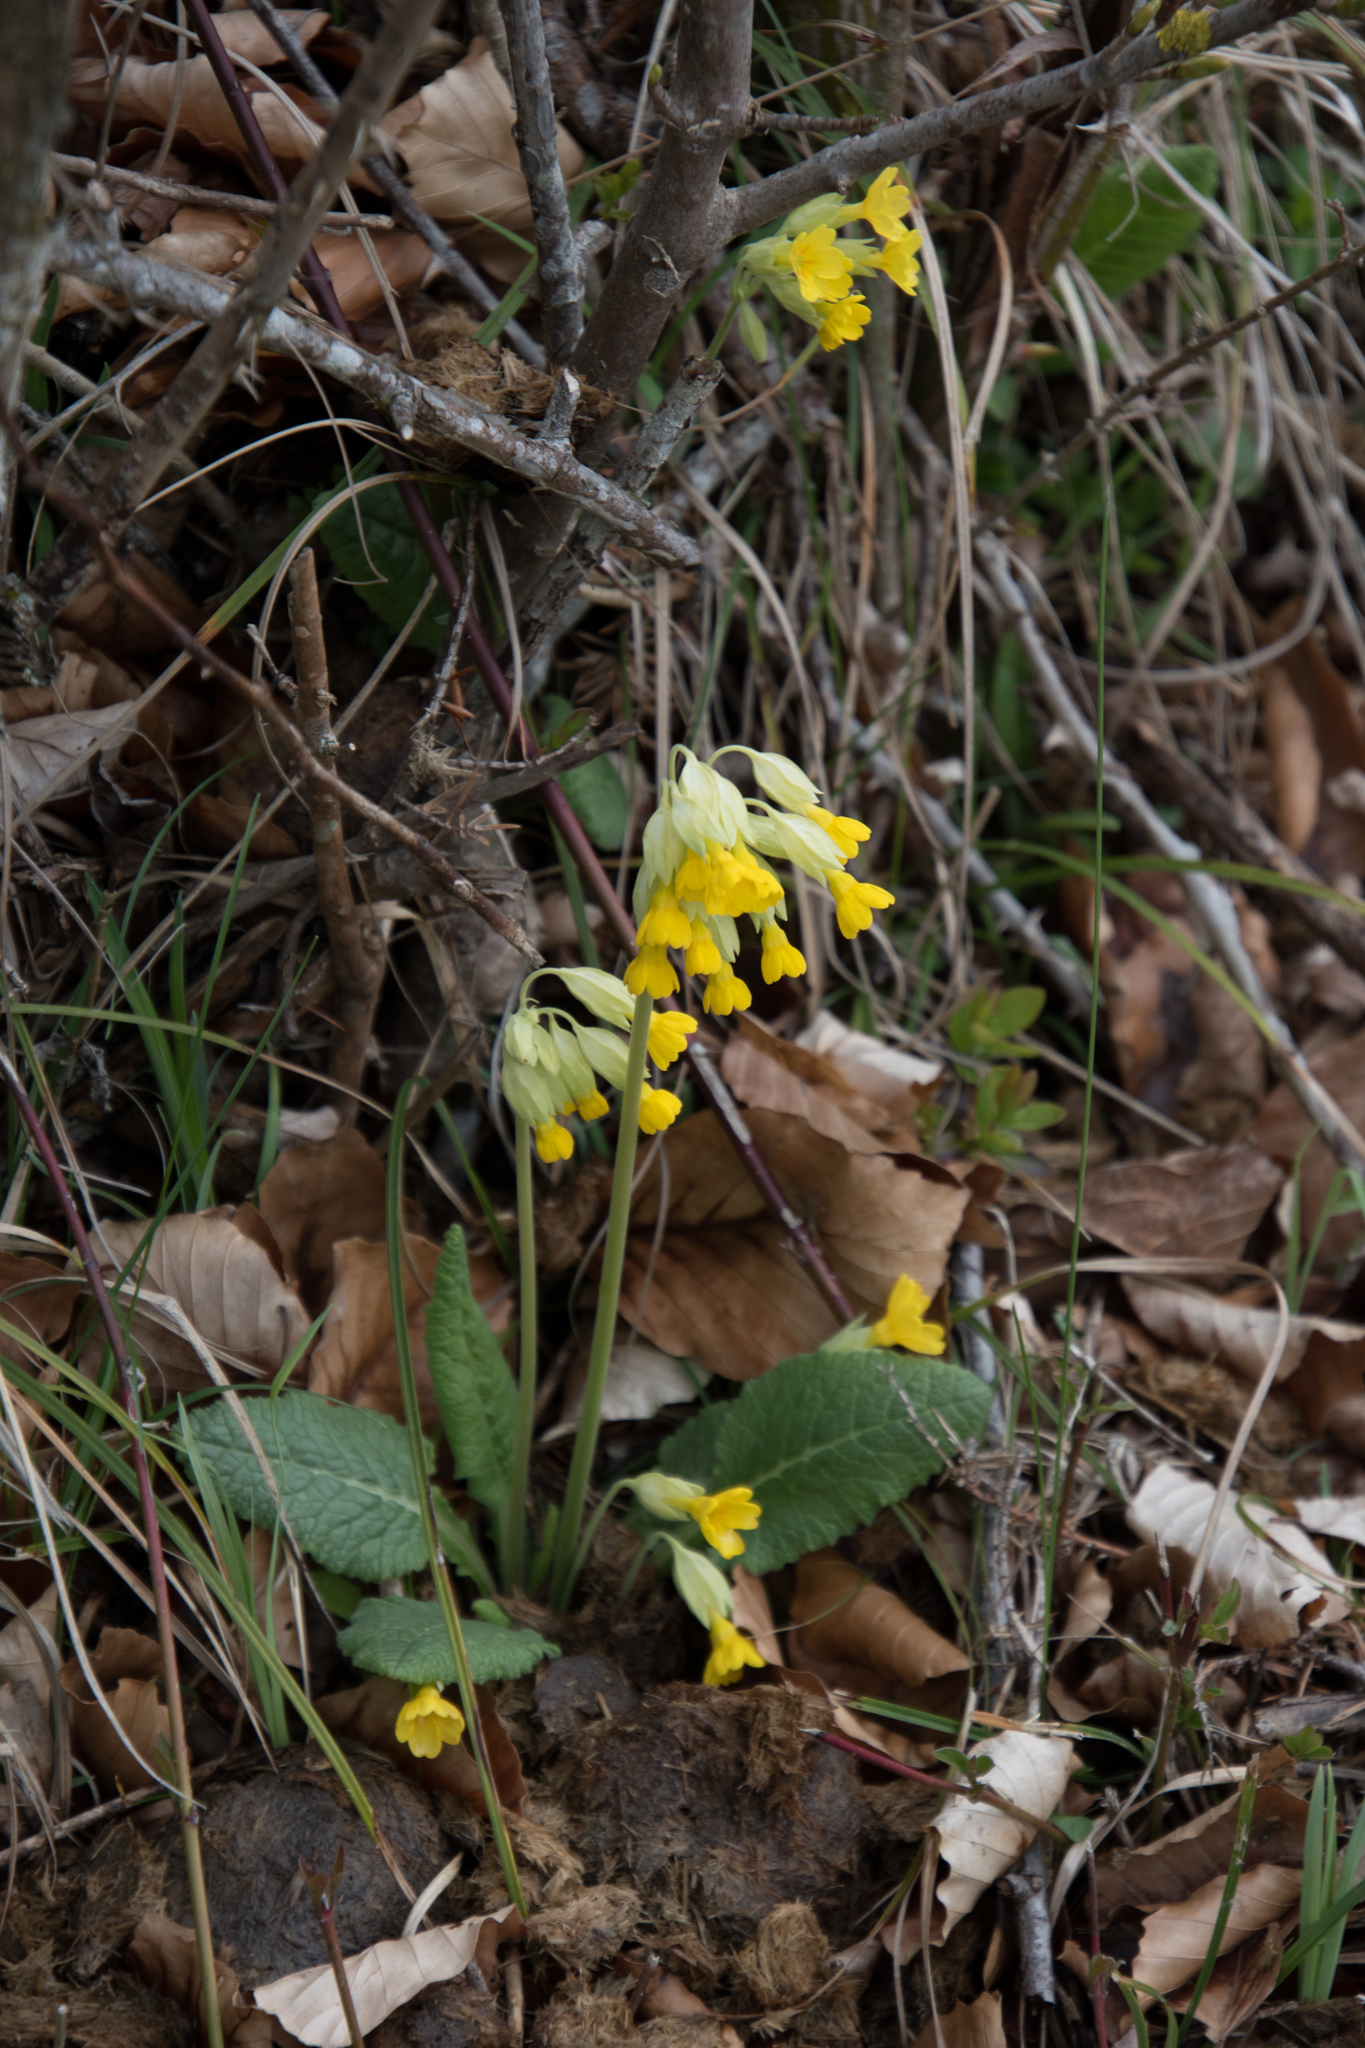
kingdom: Plantae
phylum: Tracheophyta
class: Magnoliopsida
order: Ericales
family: Primulaceae
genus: Primula
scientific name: Primula veris
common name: Cowslip
